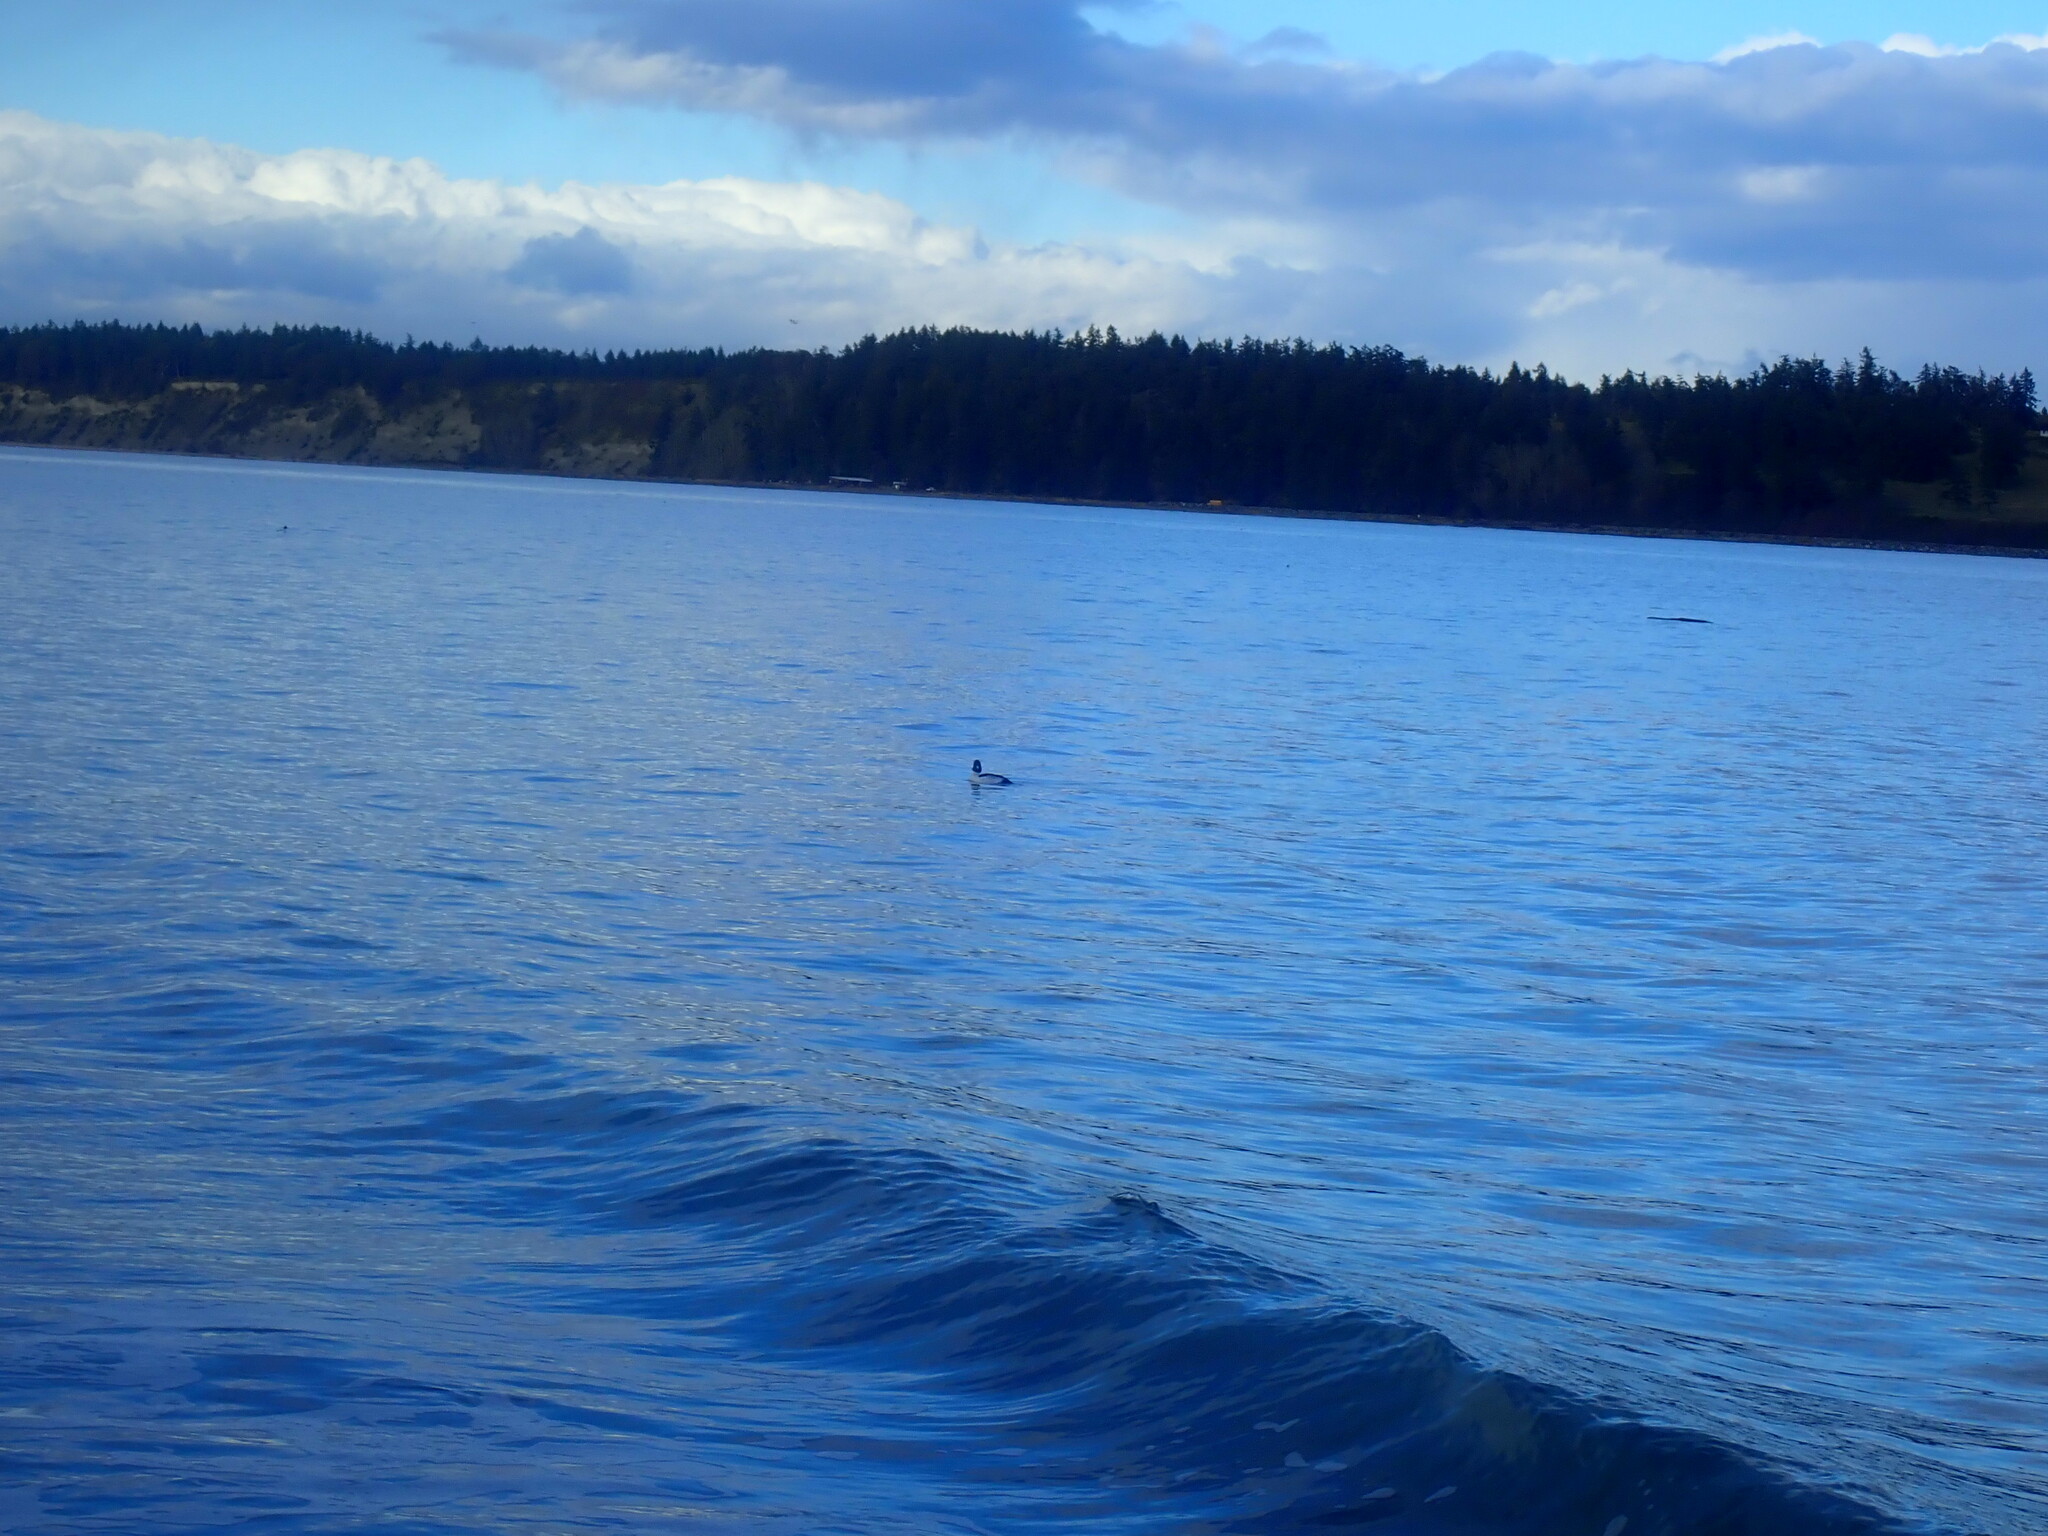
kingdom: Animalia
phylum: Chordata
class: Aves
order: Anseriformes
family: Anatidae
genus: Bucephala
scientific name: Bucephala clangula
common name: Common goldeneye
